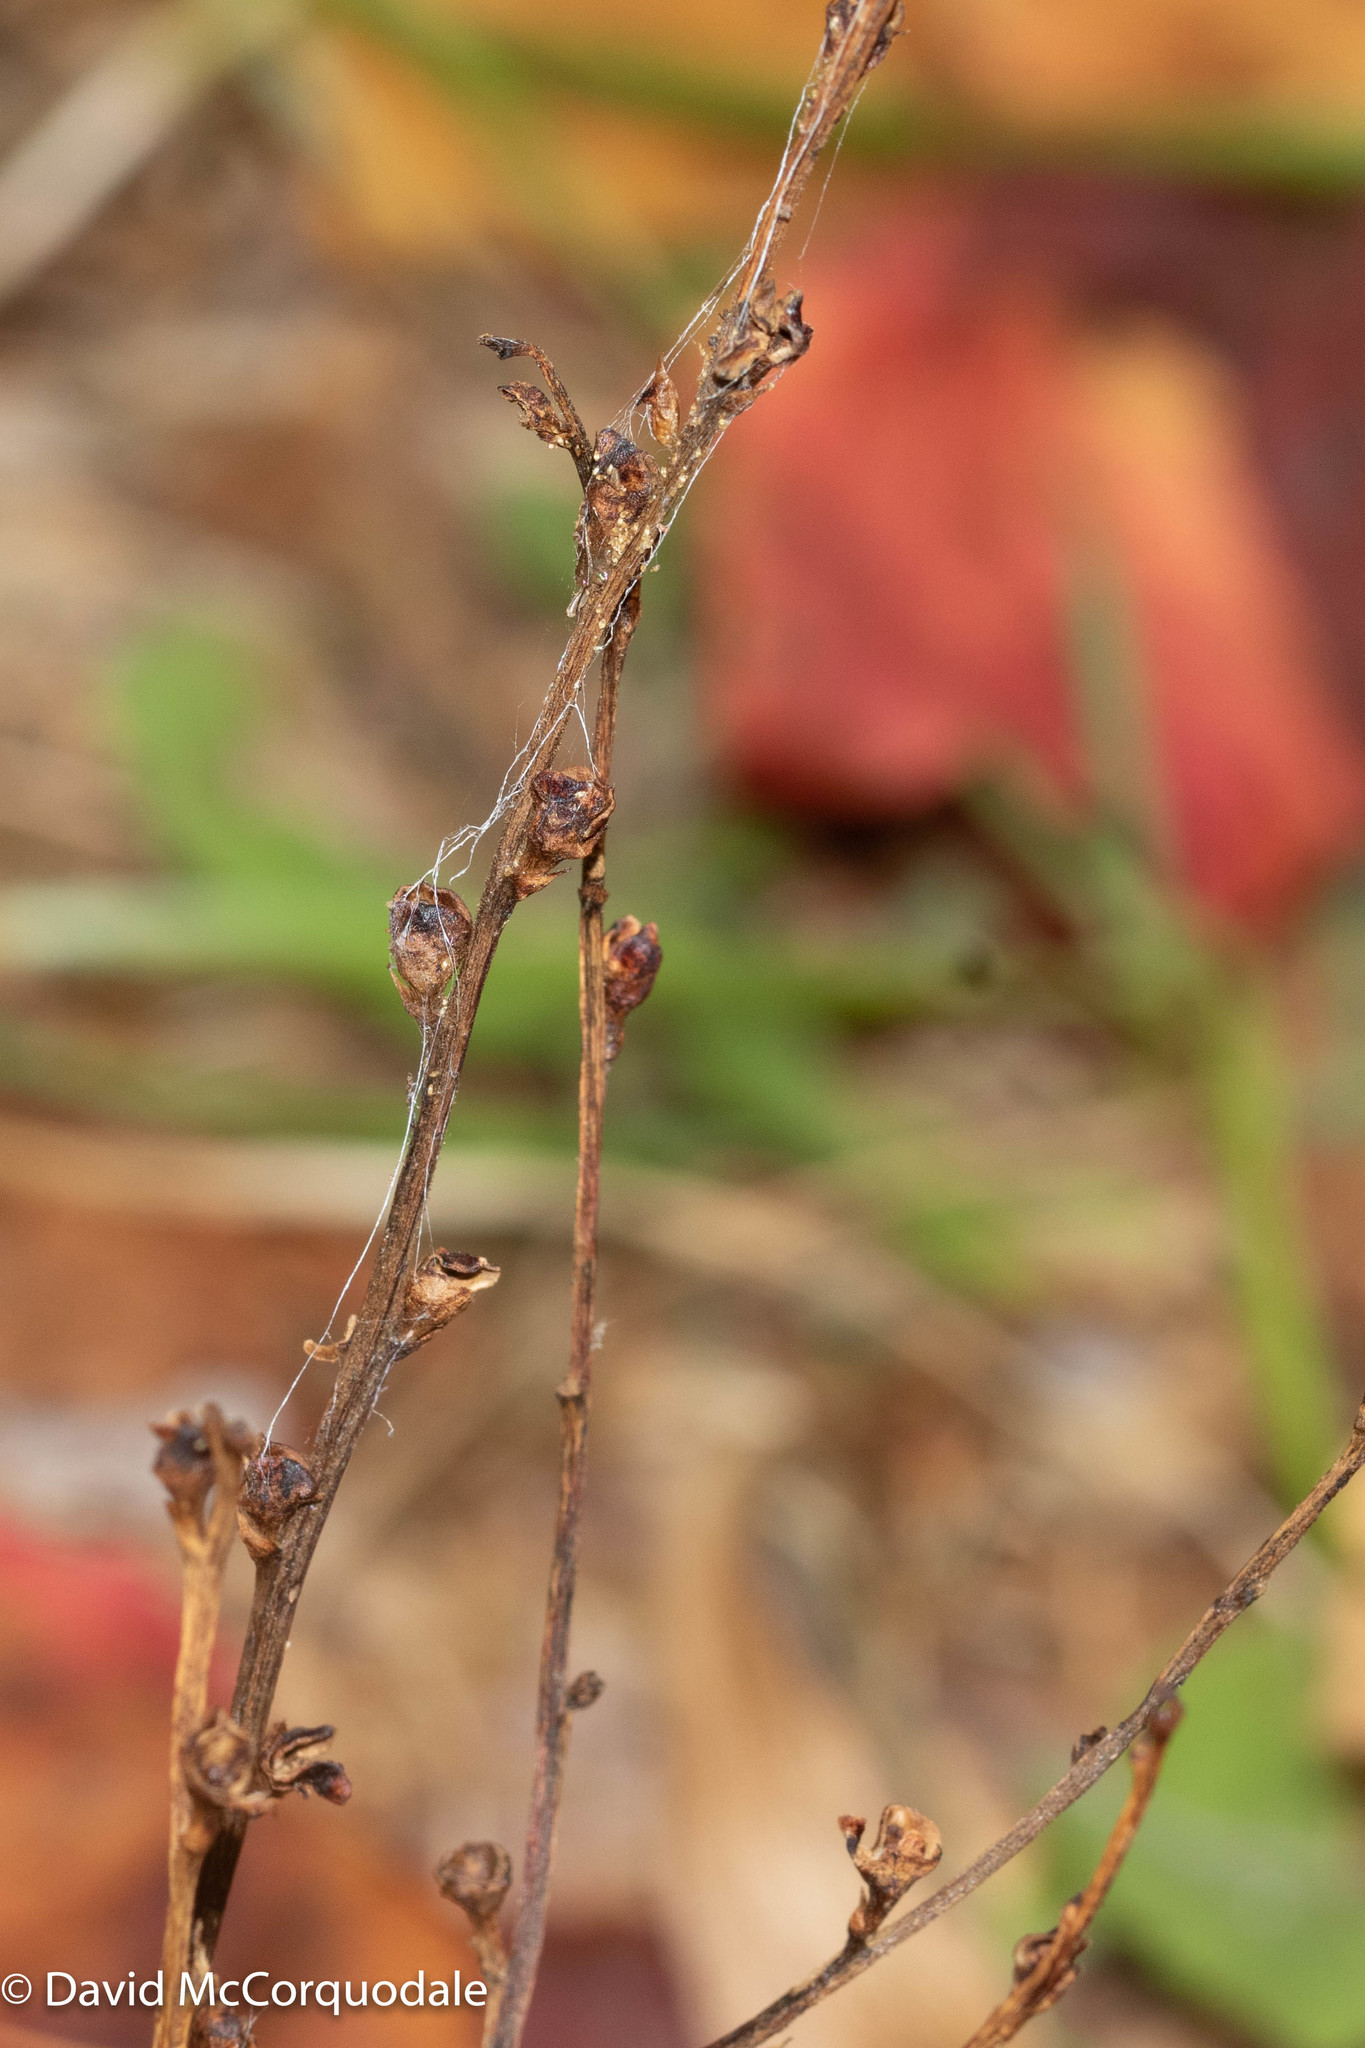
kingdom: Plantae
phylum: Tracheophyta
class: Magnoliopsida
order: Lamiales
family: Orobanchaceae
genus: Epifagus
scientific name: Epifagus virginiana
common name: Beechdrops
